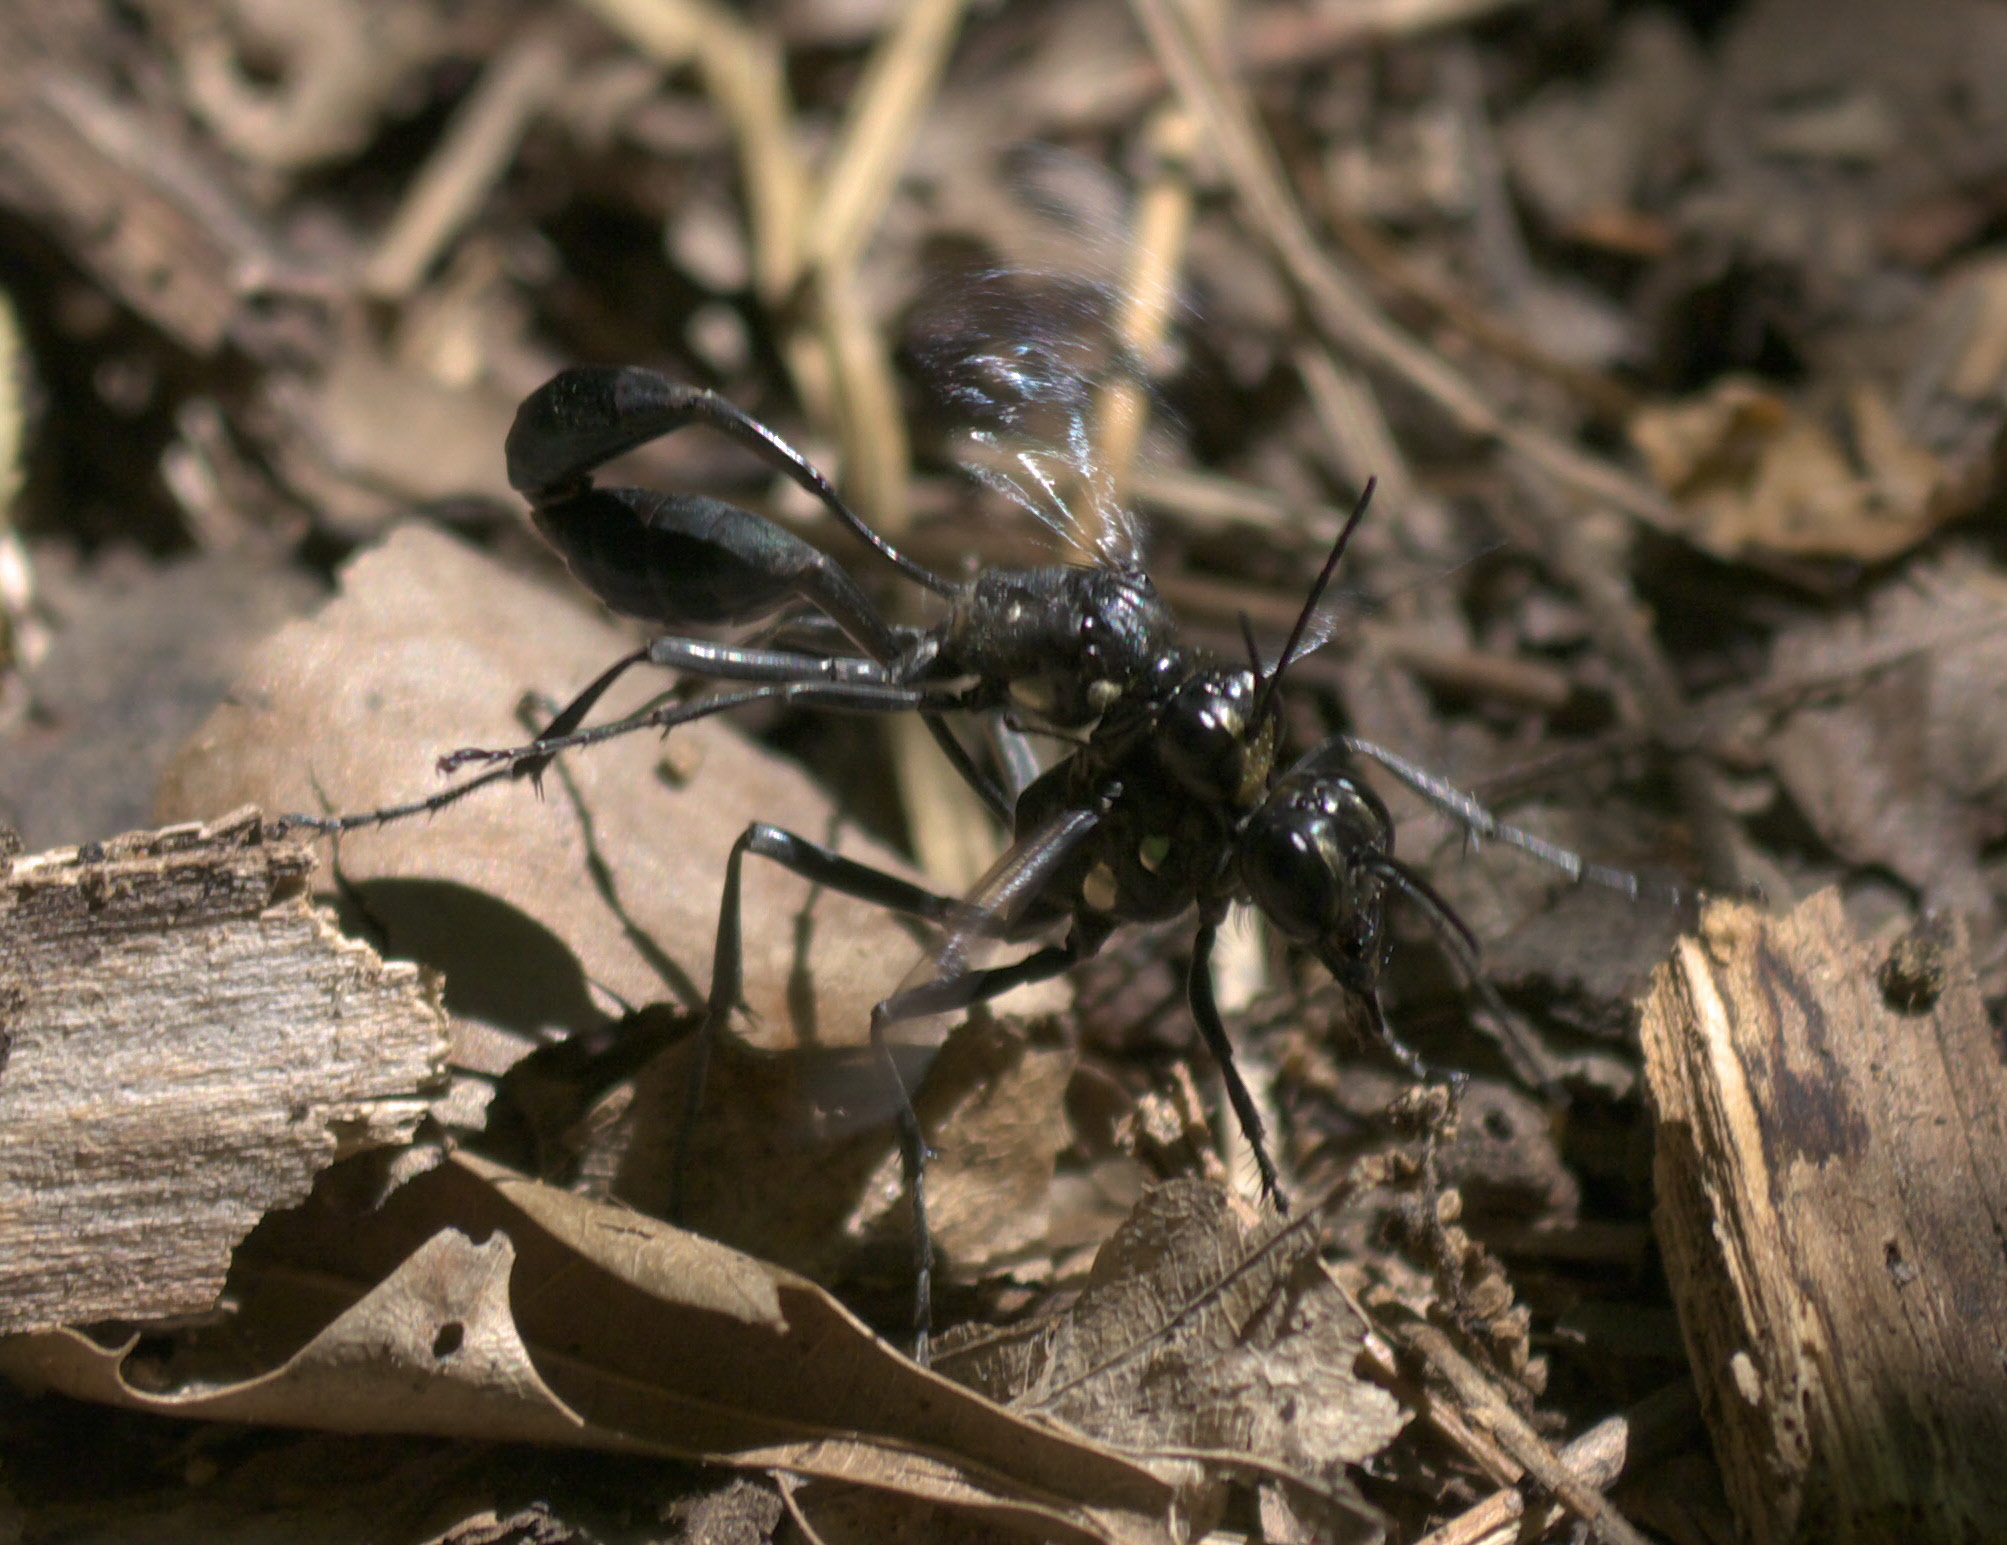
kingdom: Animalia
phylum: Arthropoda
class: Insecta
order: Hymenoptera
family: Sphecidae
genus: Eremnophila
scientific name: Eremnophila aureonotata
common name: Gold-marked thread-waisted wasp
